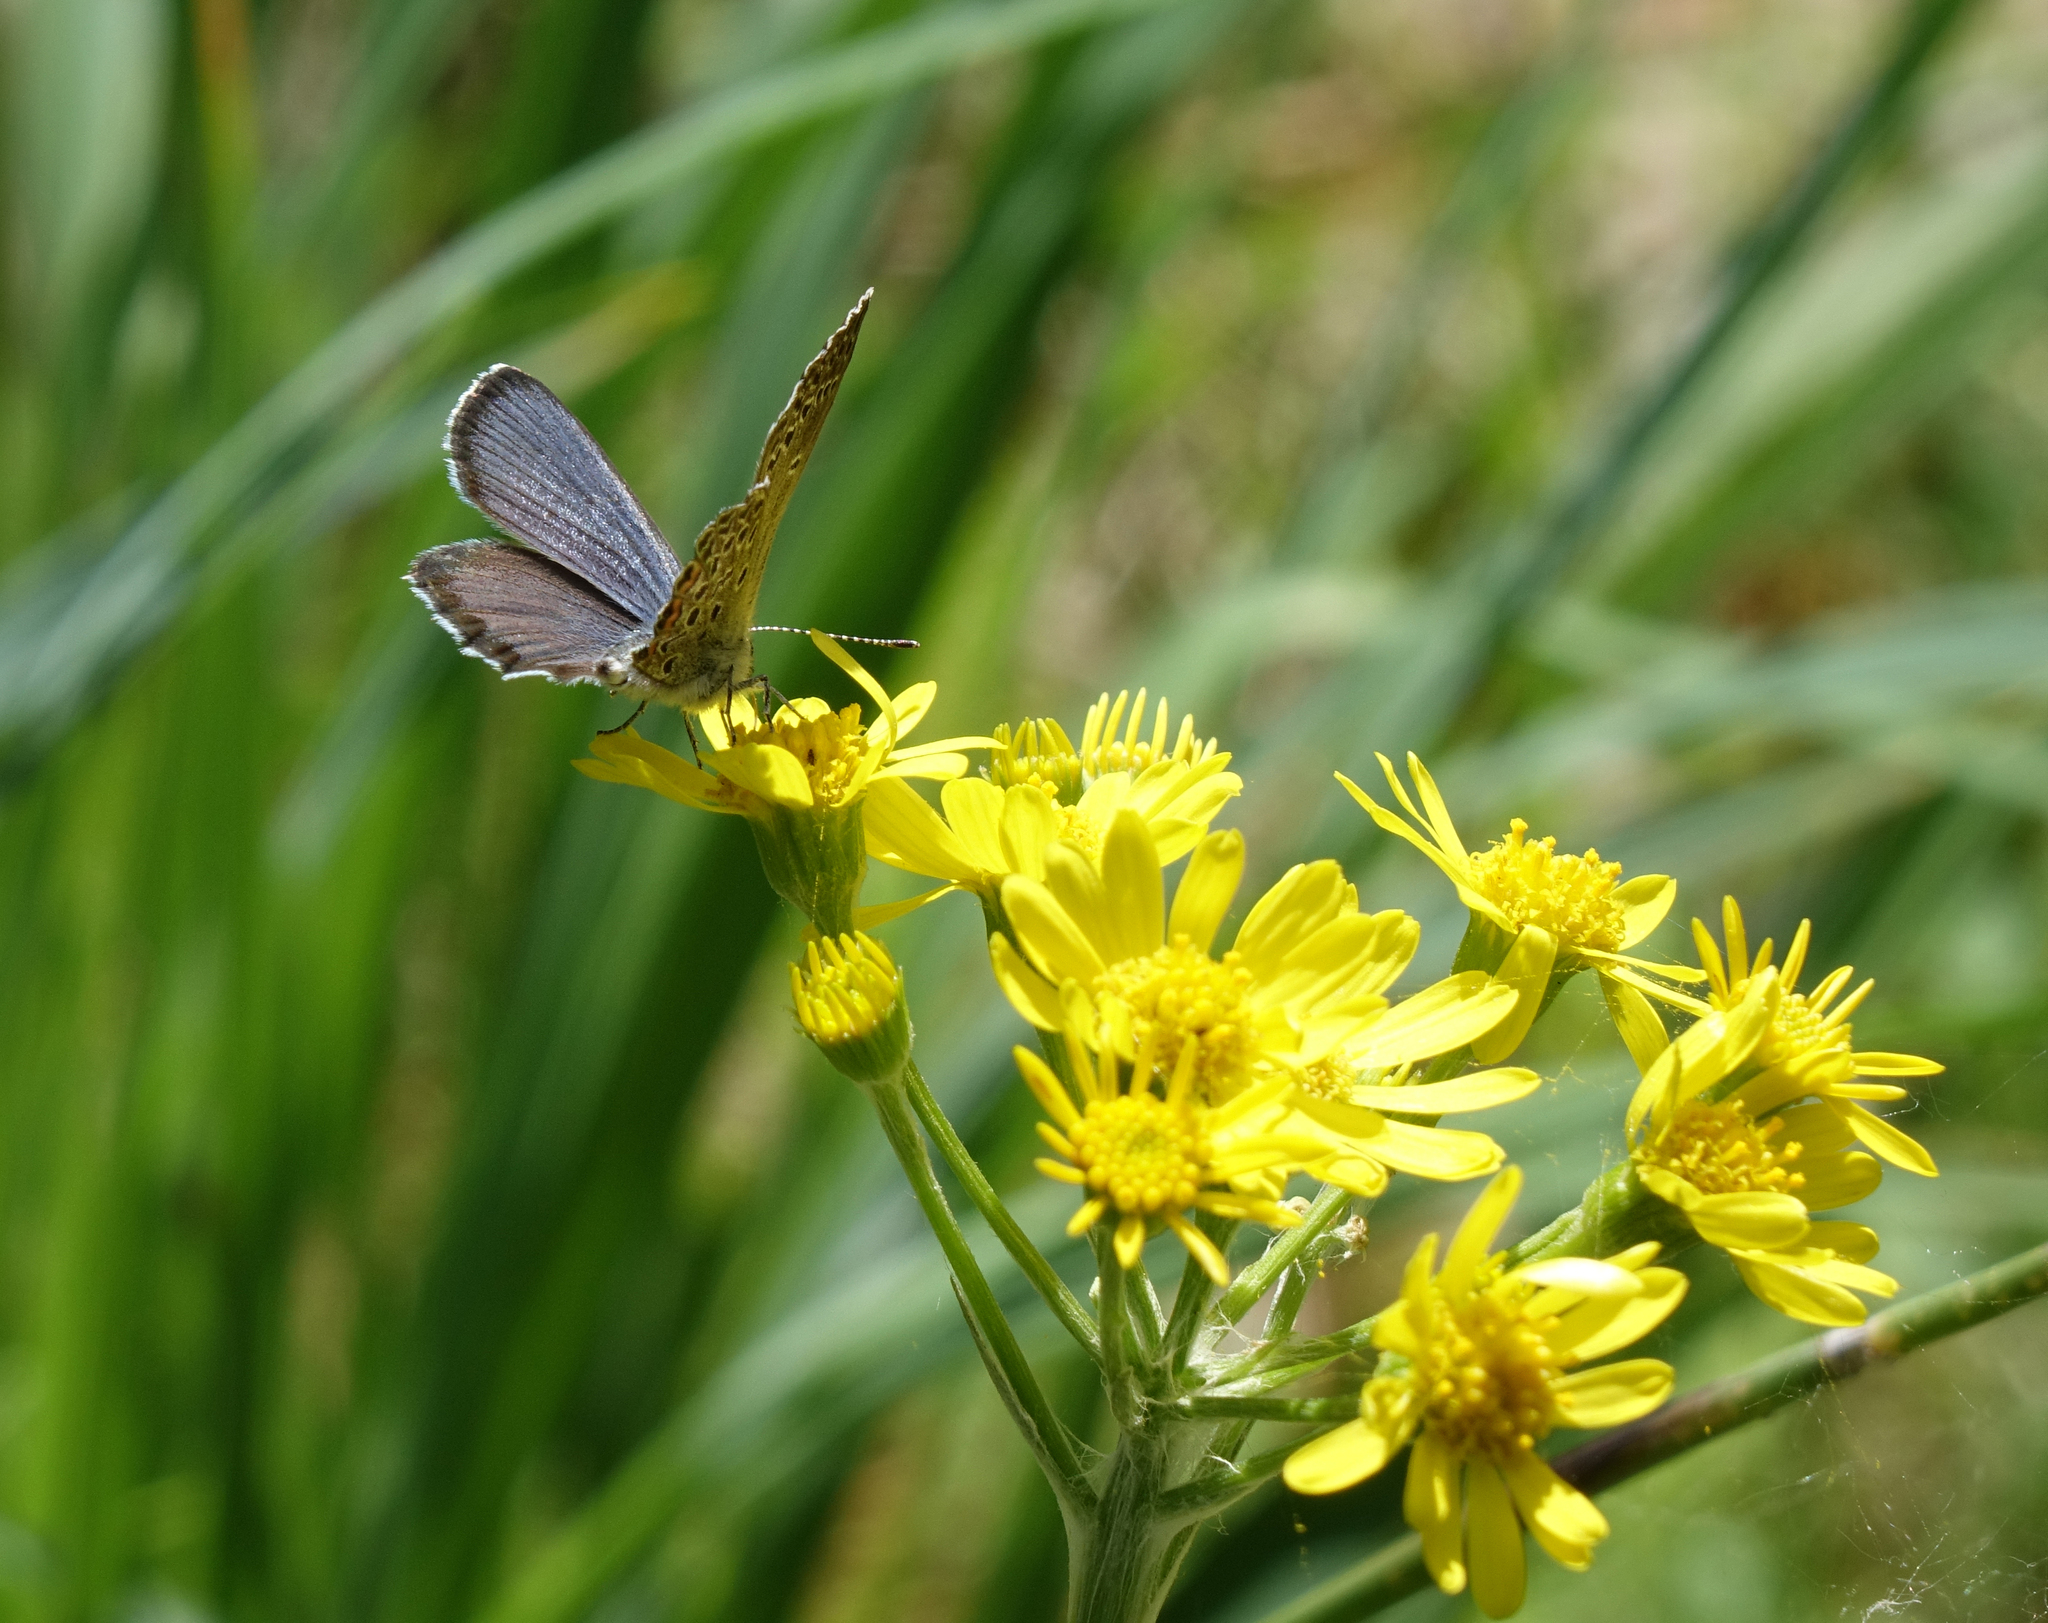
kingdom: Animalia
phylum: Arthropoda
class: Insecta
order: Lepidoptera
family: Lycaenidae
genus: Vacciniina
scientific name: Vacciniina optilete
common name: Cranberry blue
